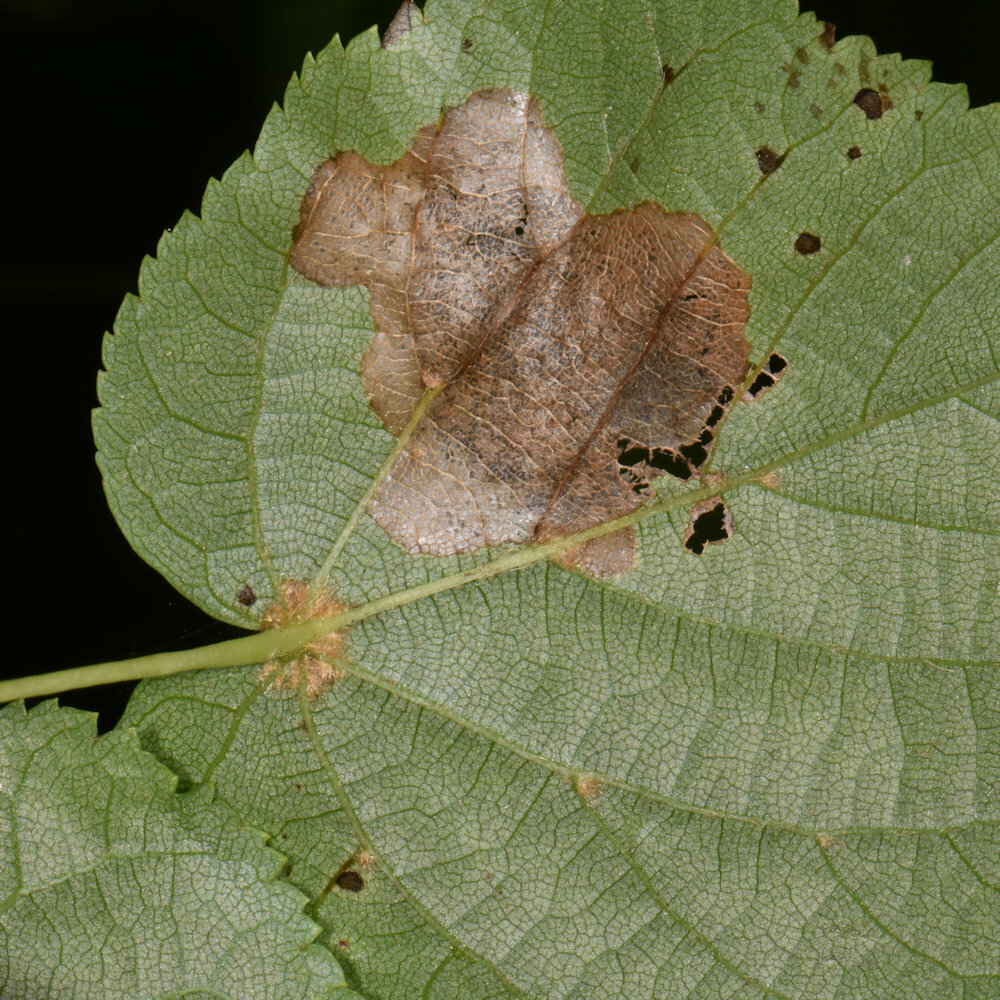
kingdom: Animalia
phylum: Arthropoda
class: Insecta
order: Coleoptera
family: Chrysomelidae
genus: Baliosus
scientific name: Baliosus nervosus
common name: Basswood leaf miner
